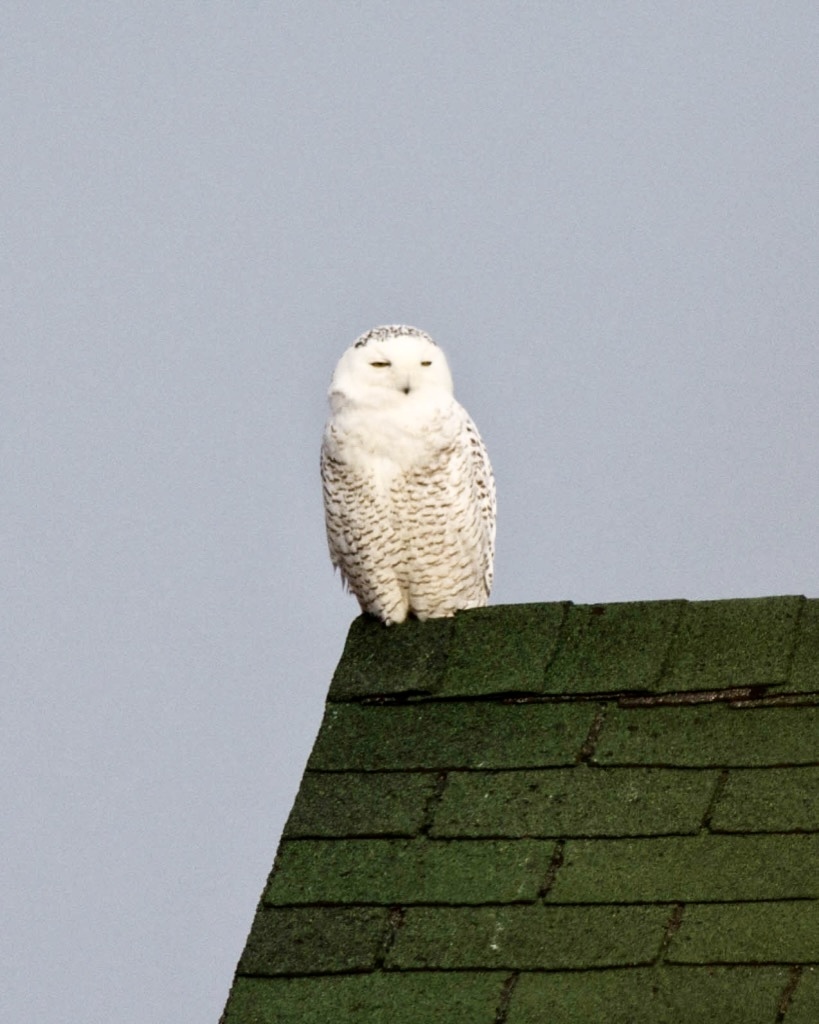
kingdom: Animalia
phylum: Chordata
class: Aves
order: Strigiformes
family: Strigidae
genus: Bubo
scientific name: Bubo scandiacus
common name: Snowy owl
